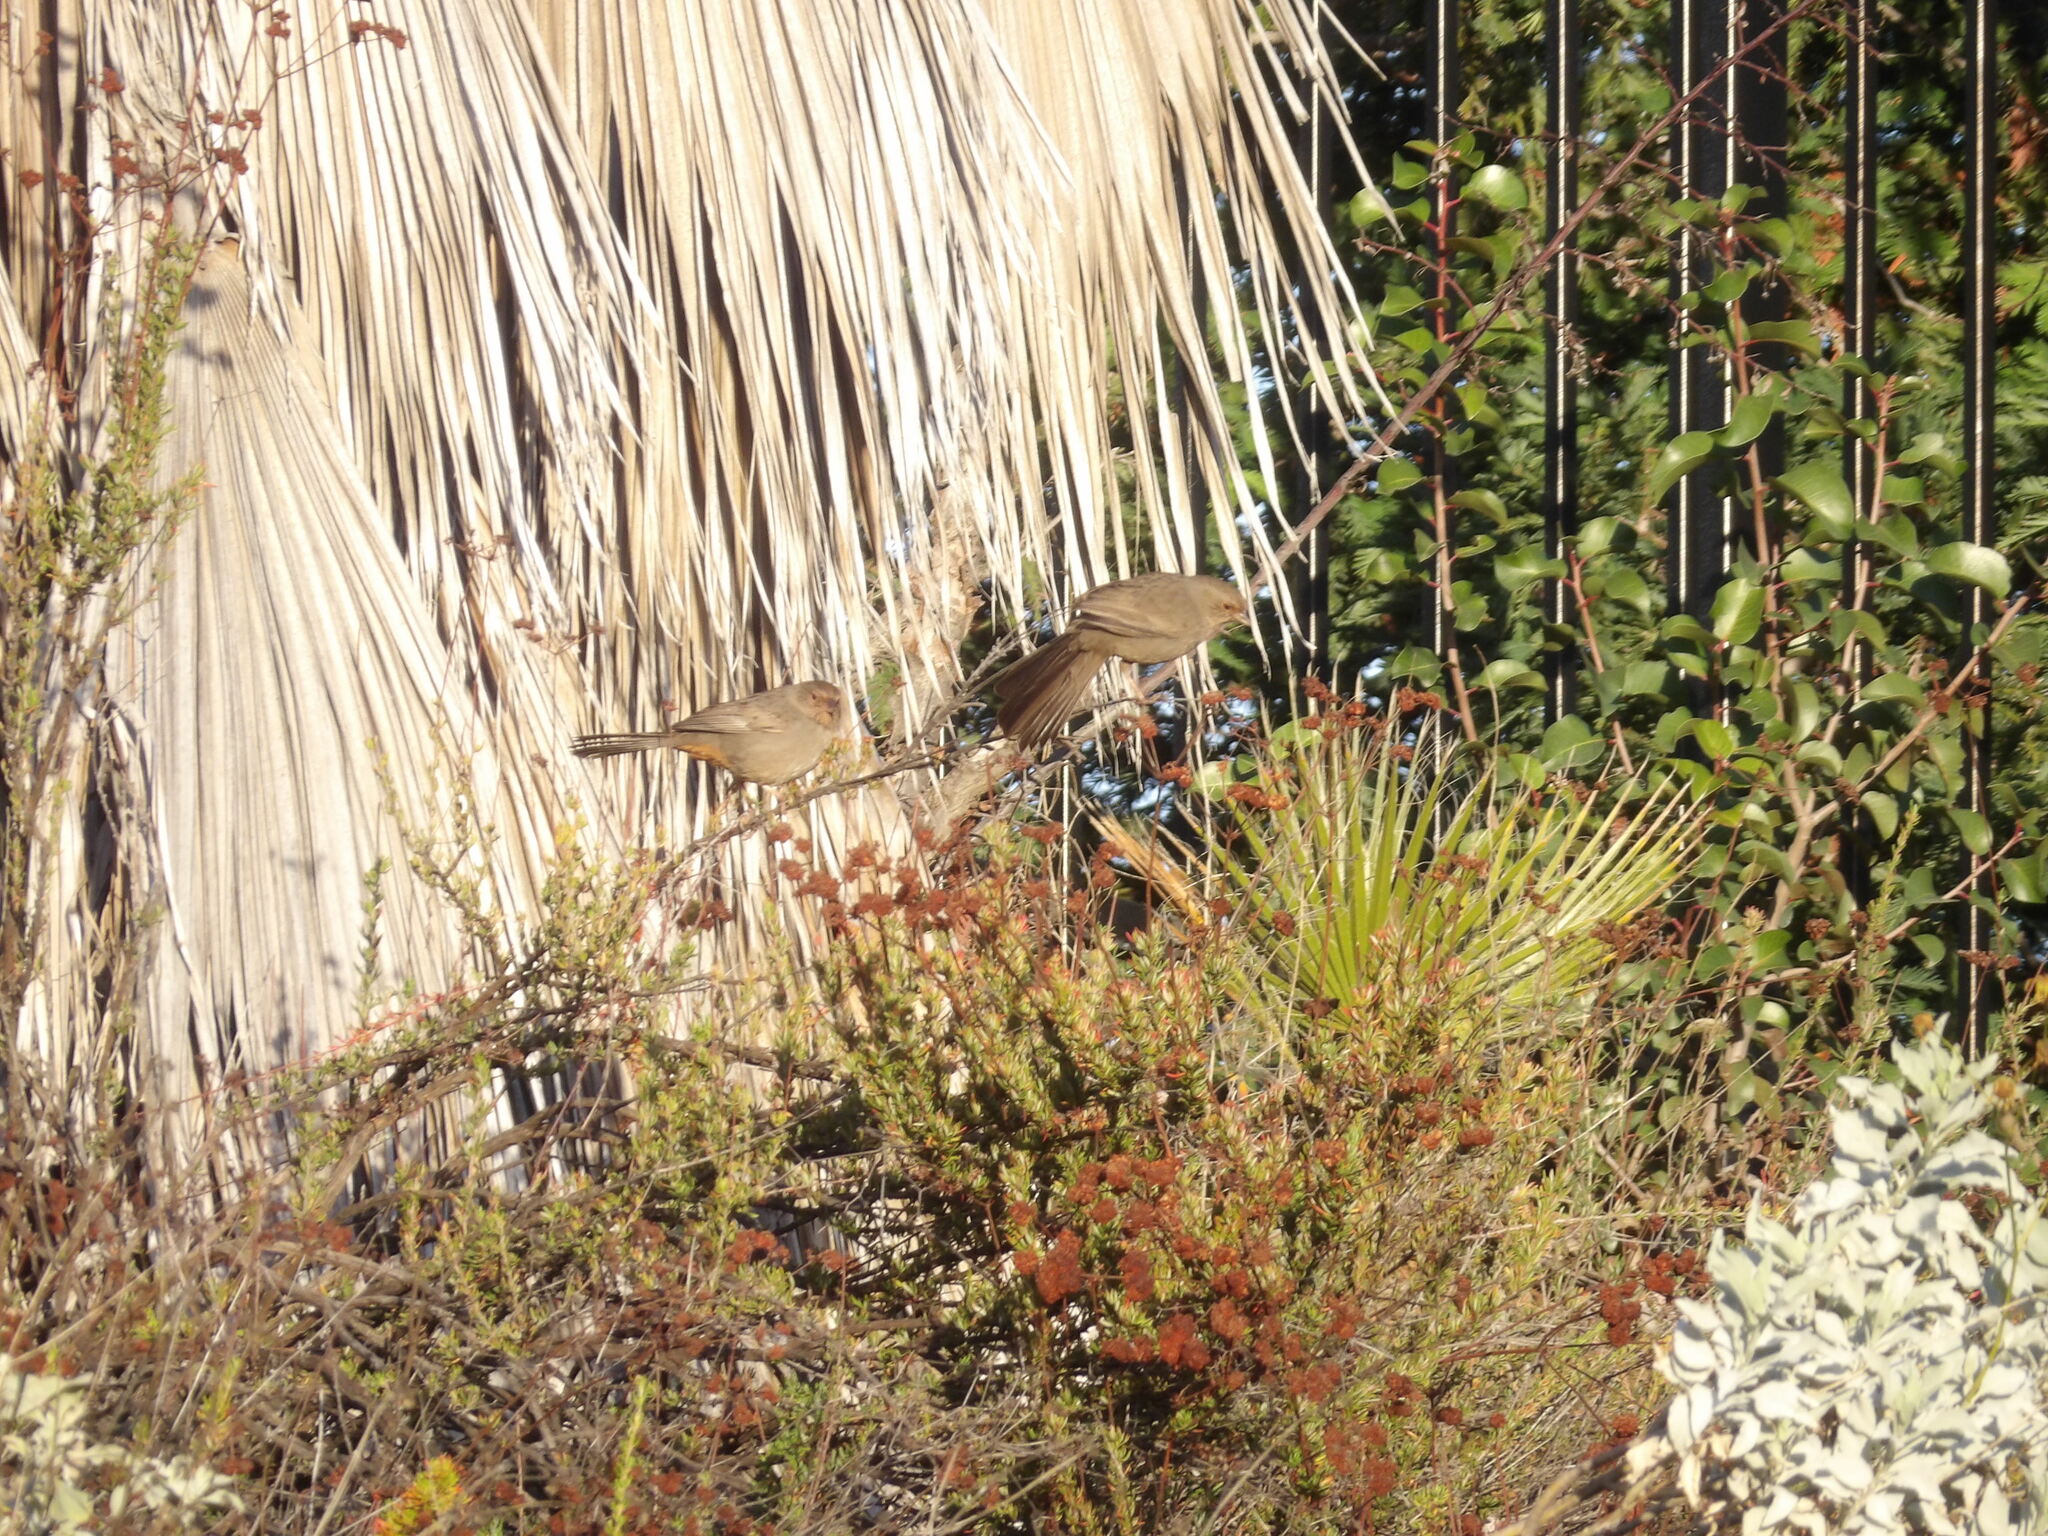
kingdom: Animalia
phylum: Chordata
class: Aves
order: Passeriformes
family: Passerellidae
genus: Melozone
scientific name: Melozone crissalis
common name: California towhee
